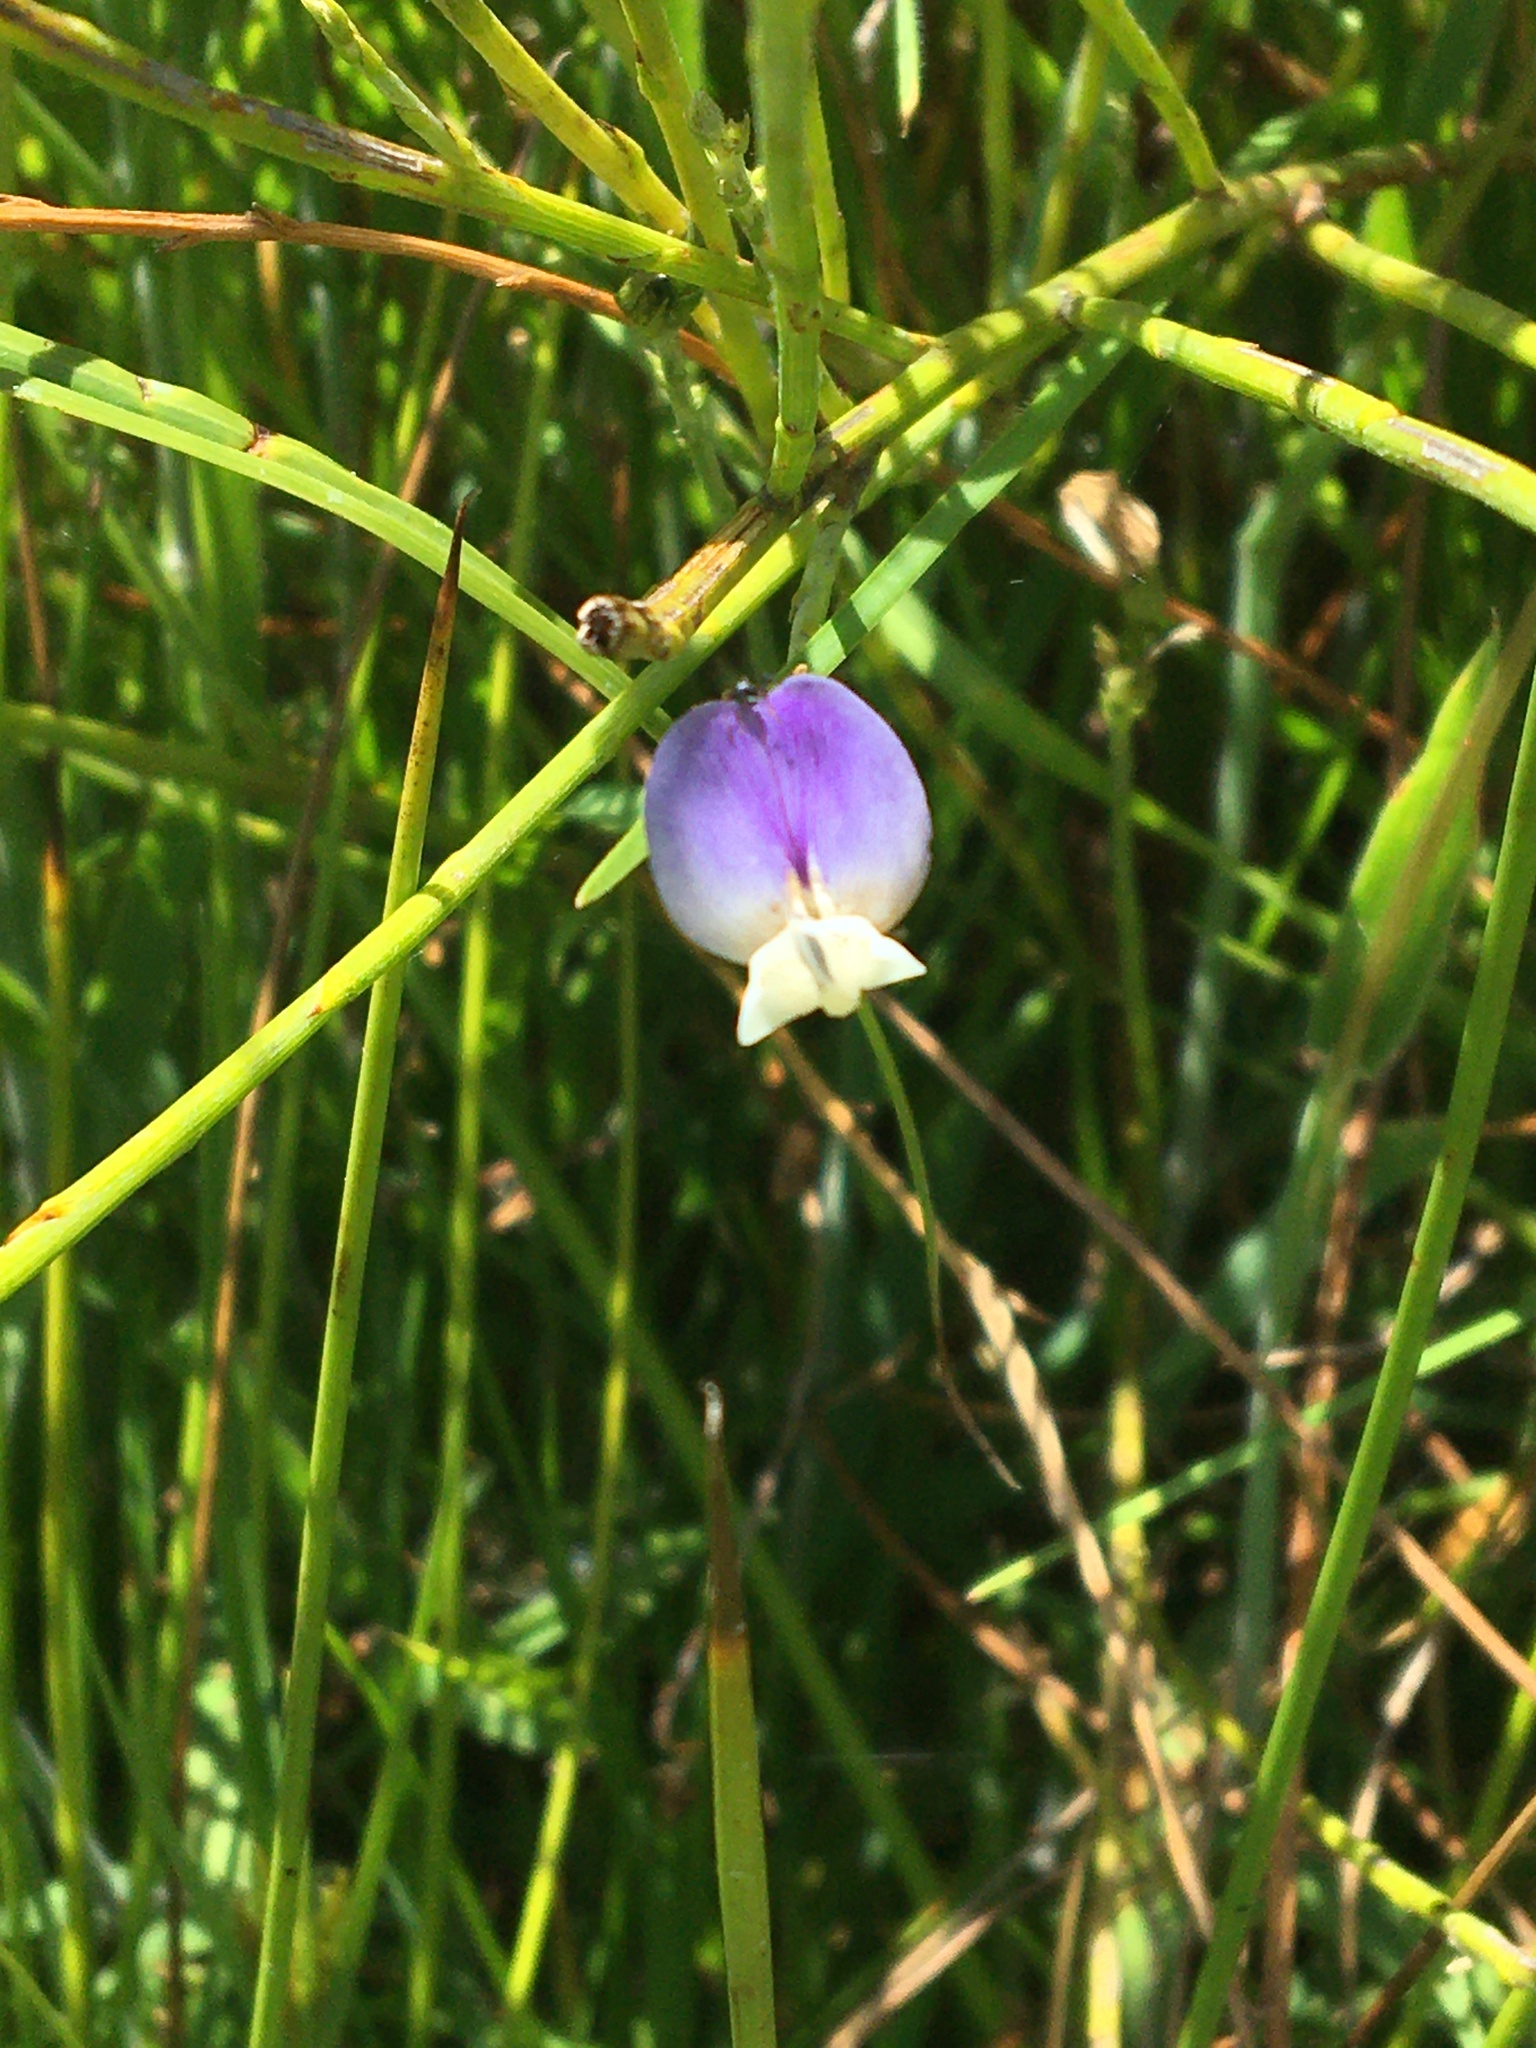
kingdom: Plantae
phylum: Tracheophyta
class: Magnoliopsida
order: Fabales
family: Fabaceae
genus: Psoralea
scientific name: Psoralea aphylla
